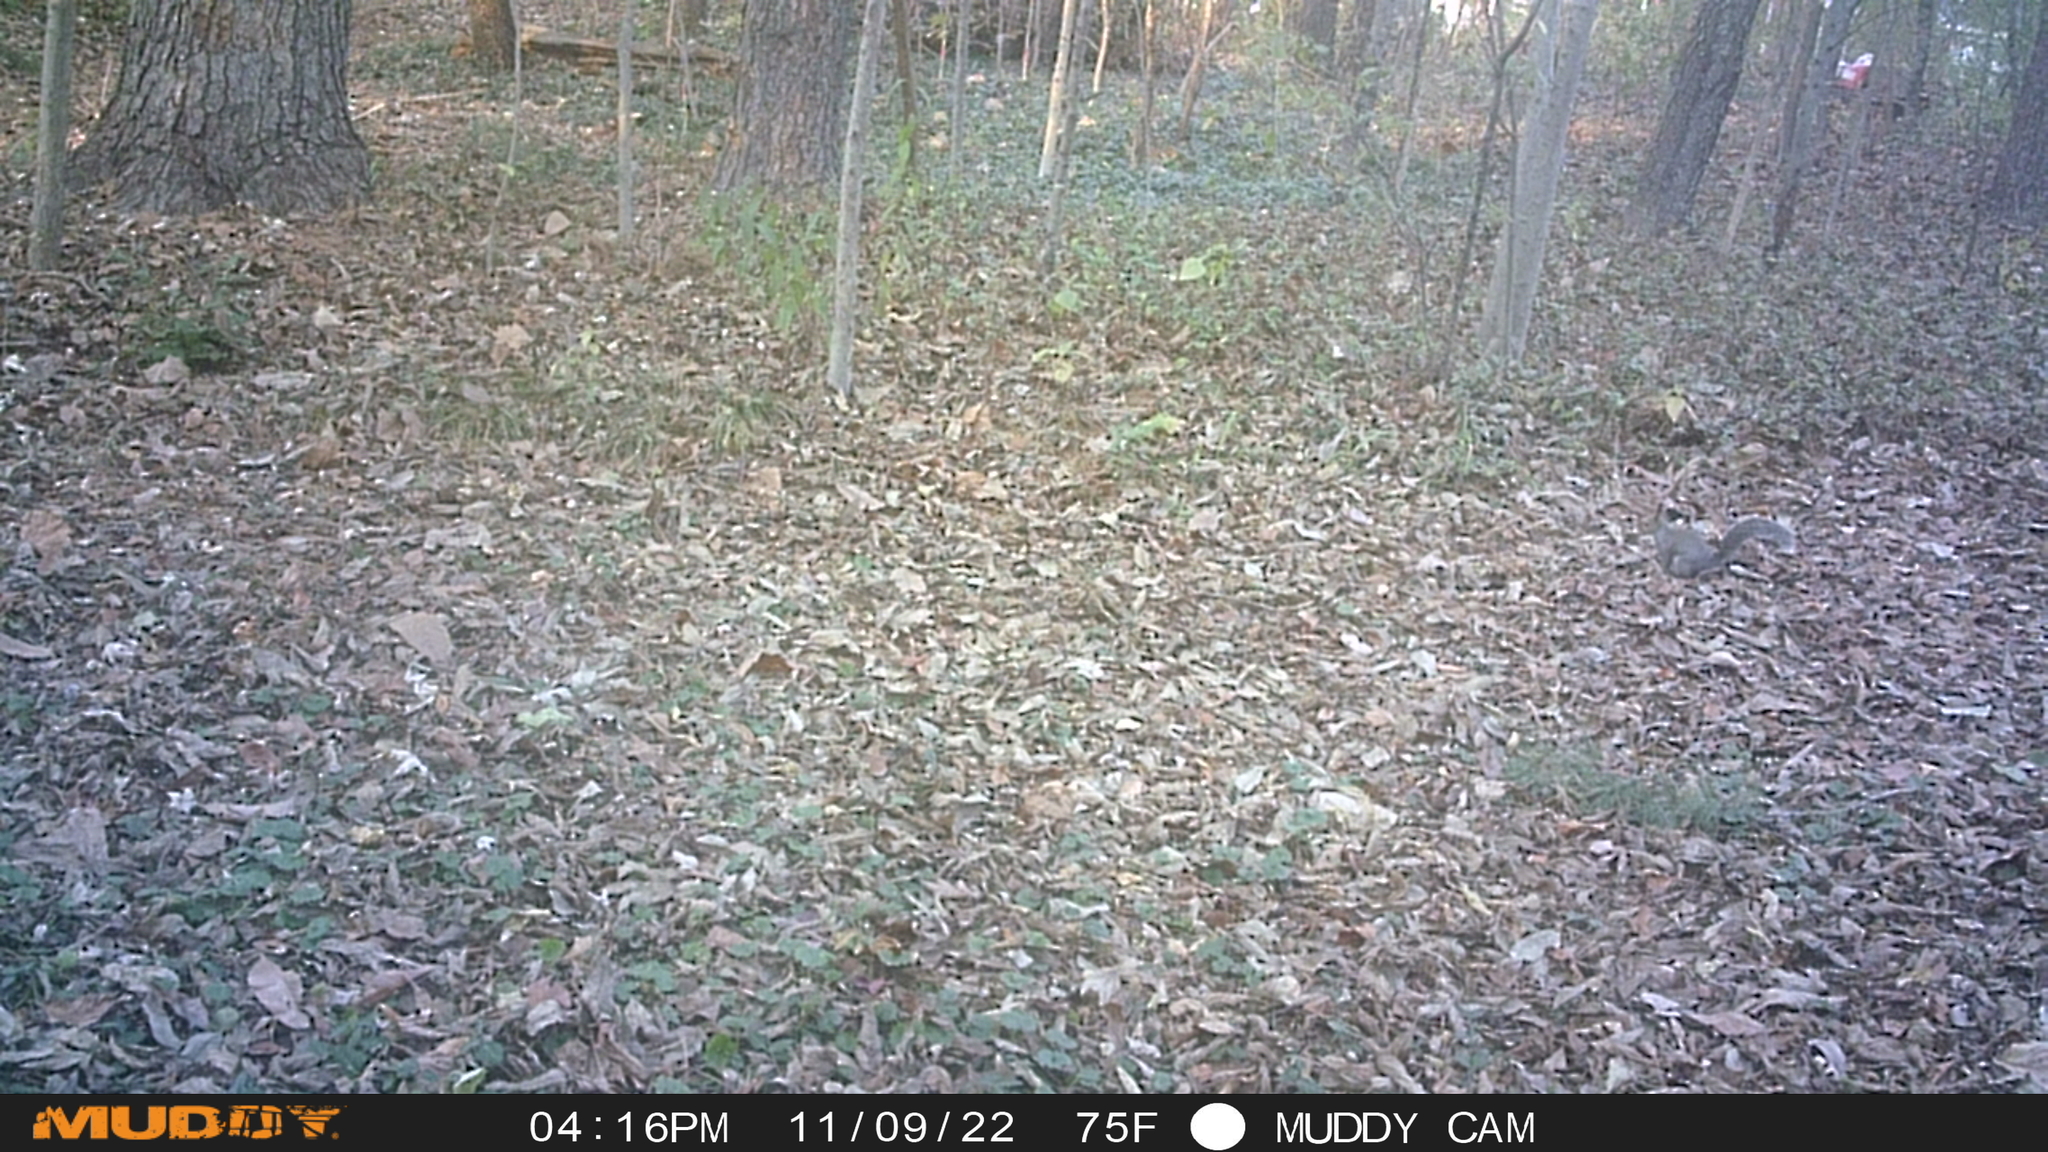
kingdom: Animalia
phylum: Chordata
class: Mammalia
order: Rodentia
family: Sciuridae
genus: Sciurus
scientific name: Sciurus carolinensis
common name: Eastern gray squirrel
